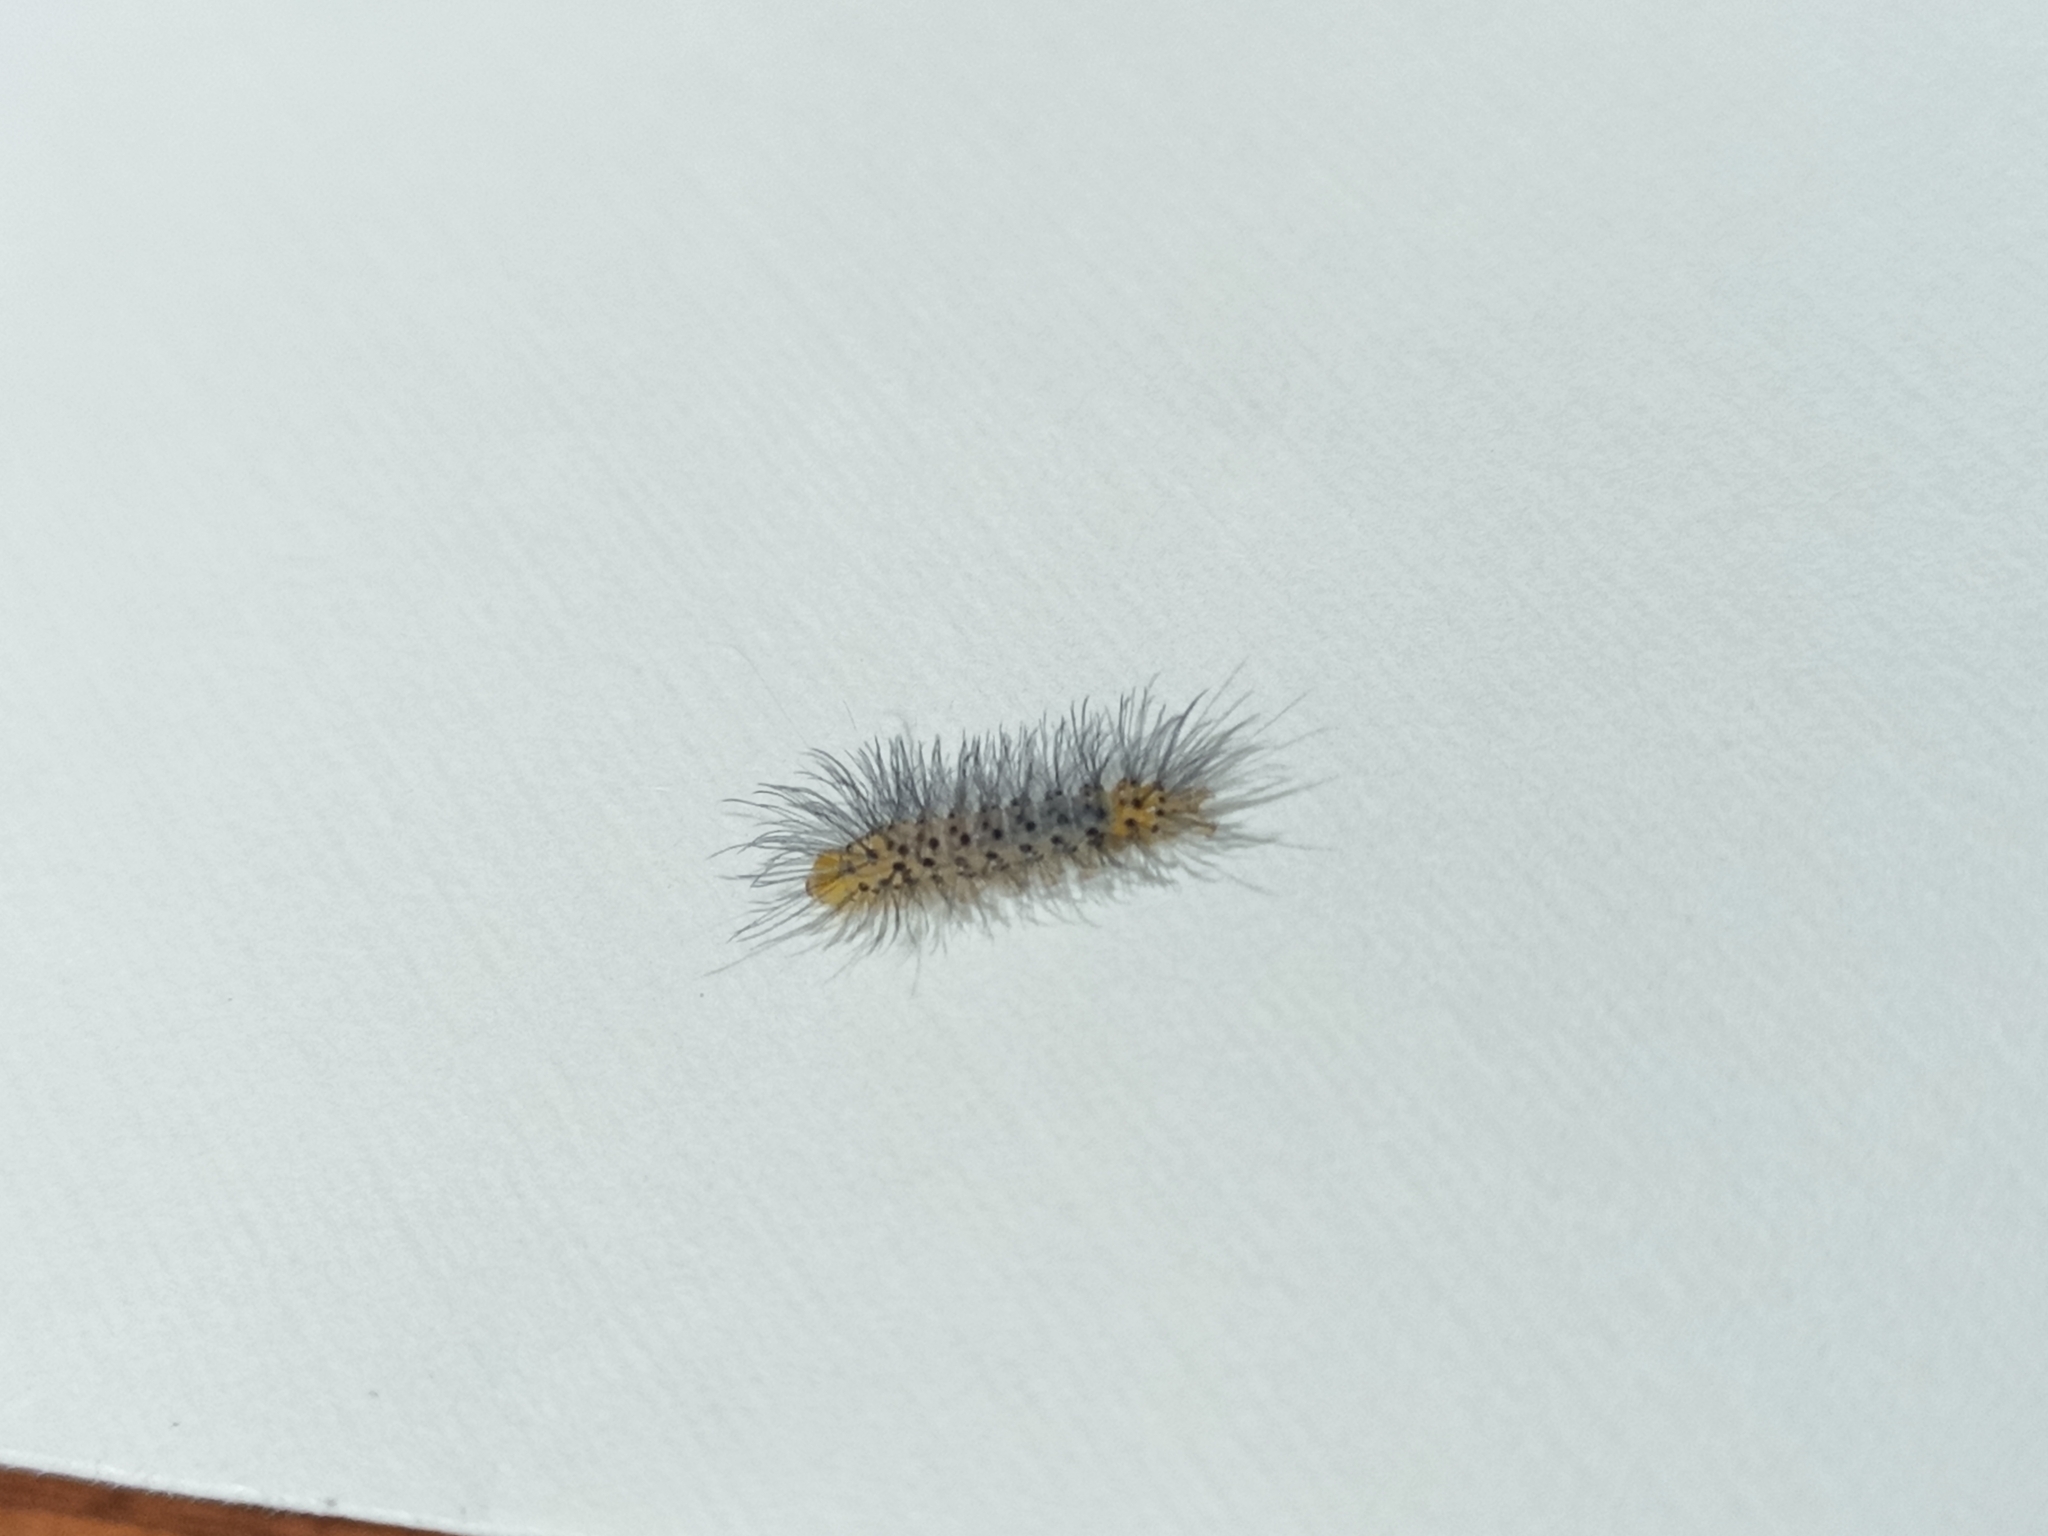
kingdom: Animalia
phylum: Arthropoda
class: Insecta
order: Lepidoptera
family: Erebidae
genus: Cosmosoma
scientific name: Cosmosoma myrodora
